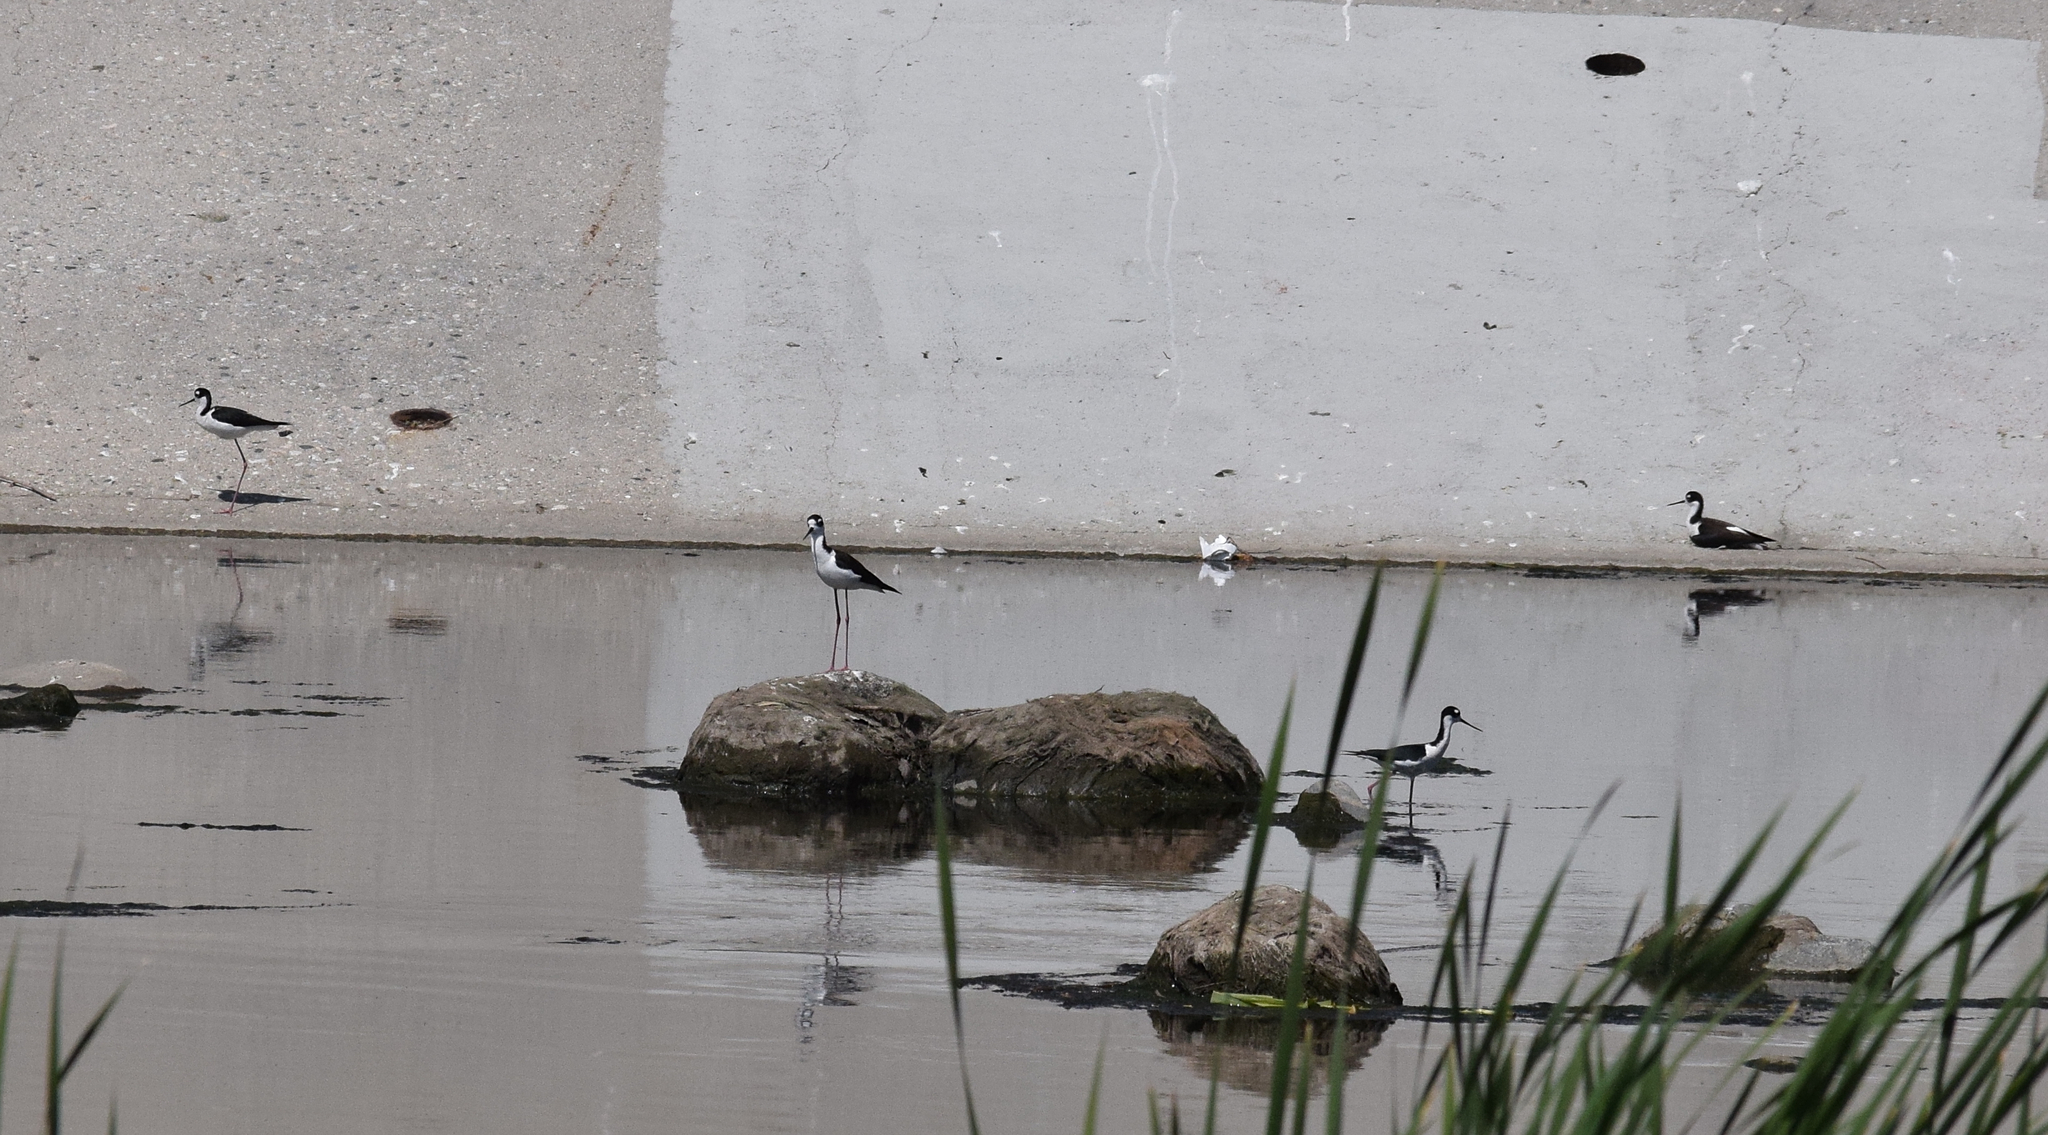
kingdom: Animalia
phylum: Chordata
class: Aves
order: Charadriiformes
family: Recurvirostridae
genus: Himantopus
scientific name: Himantopus mexicanus
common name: Black-necked stilt
